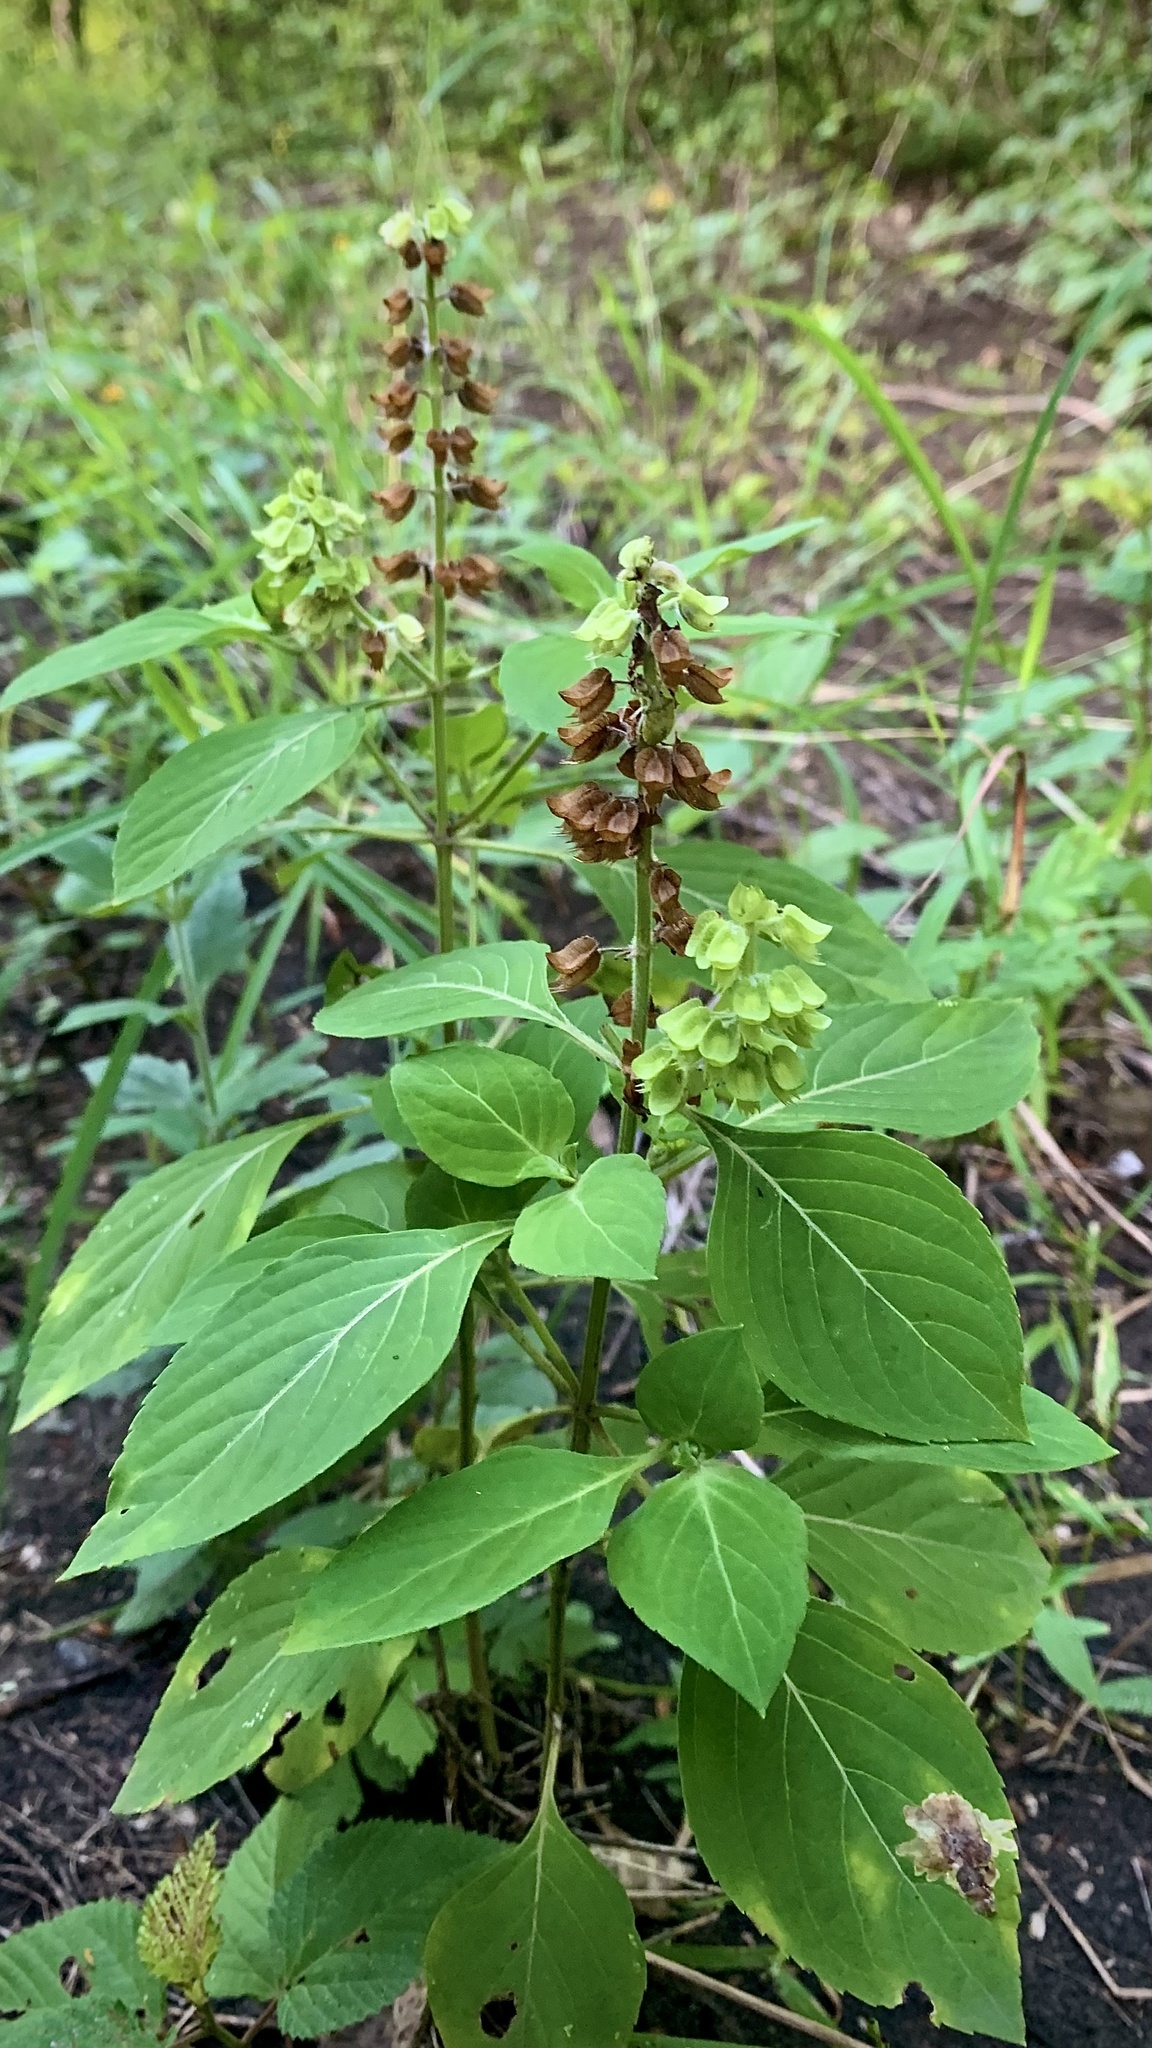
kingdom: Plantae
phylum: Tracheophyta
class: Magnoliopsida
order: Lamiales
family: Lamiaceae
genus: Ocimum
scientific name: Ocimum campechianum
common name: Mosquito basil
